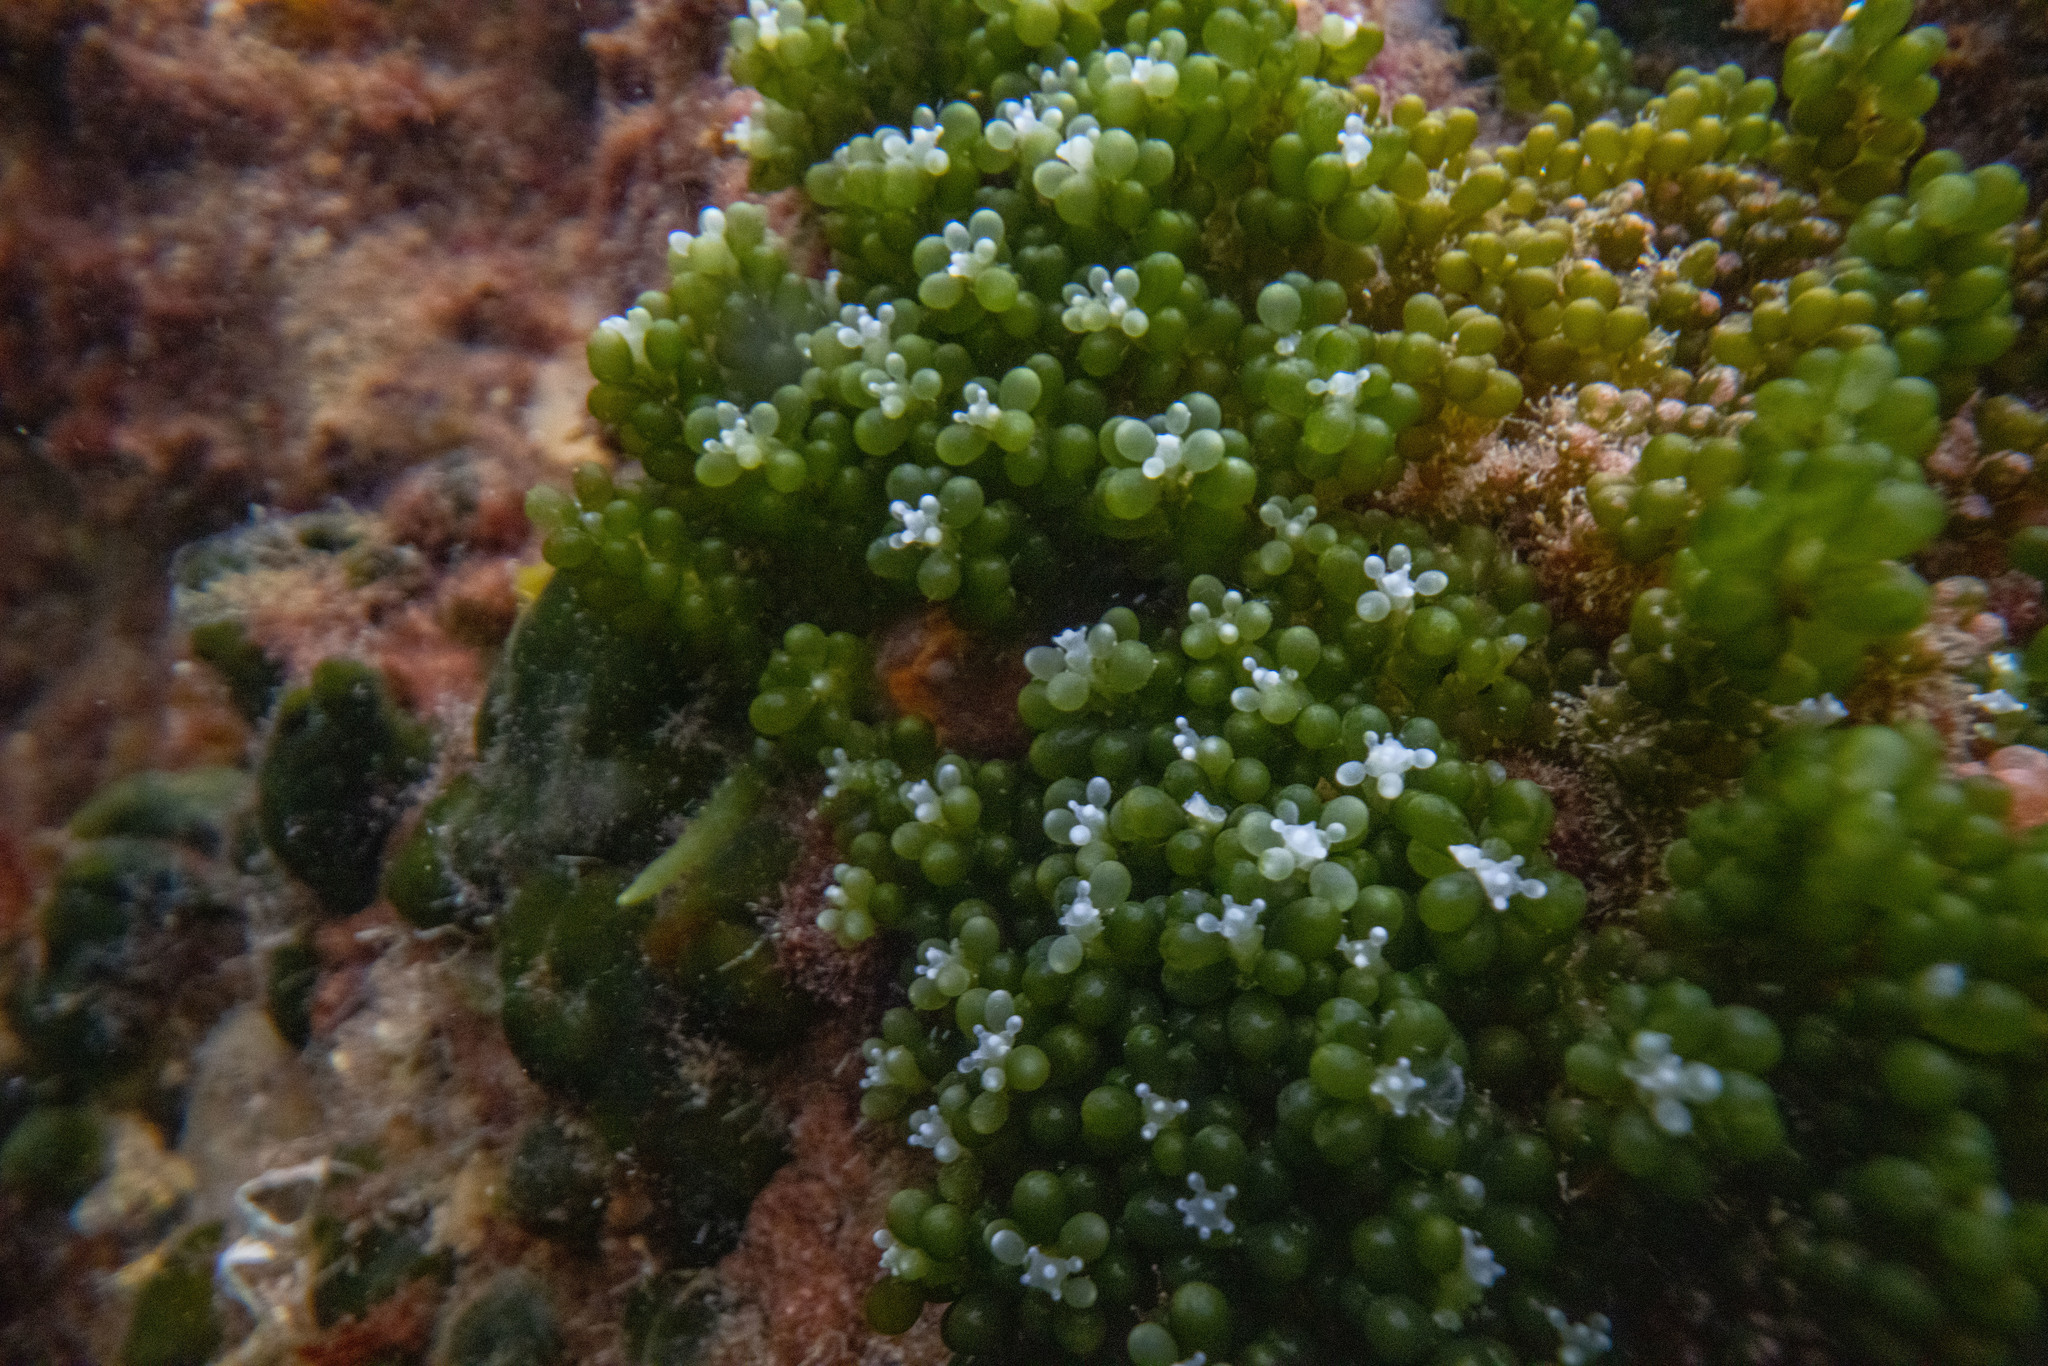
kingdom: Plantae
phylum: Chlorophyta
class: Ulvophyceae
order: Bryopsidales
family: Caulerpaceae
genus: Caulerpa
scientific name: Caulerpa geminata
